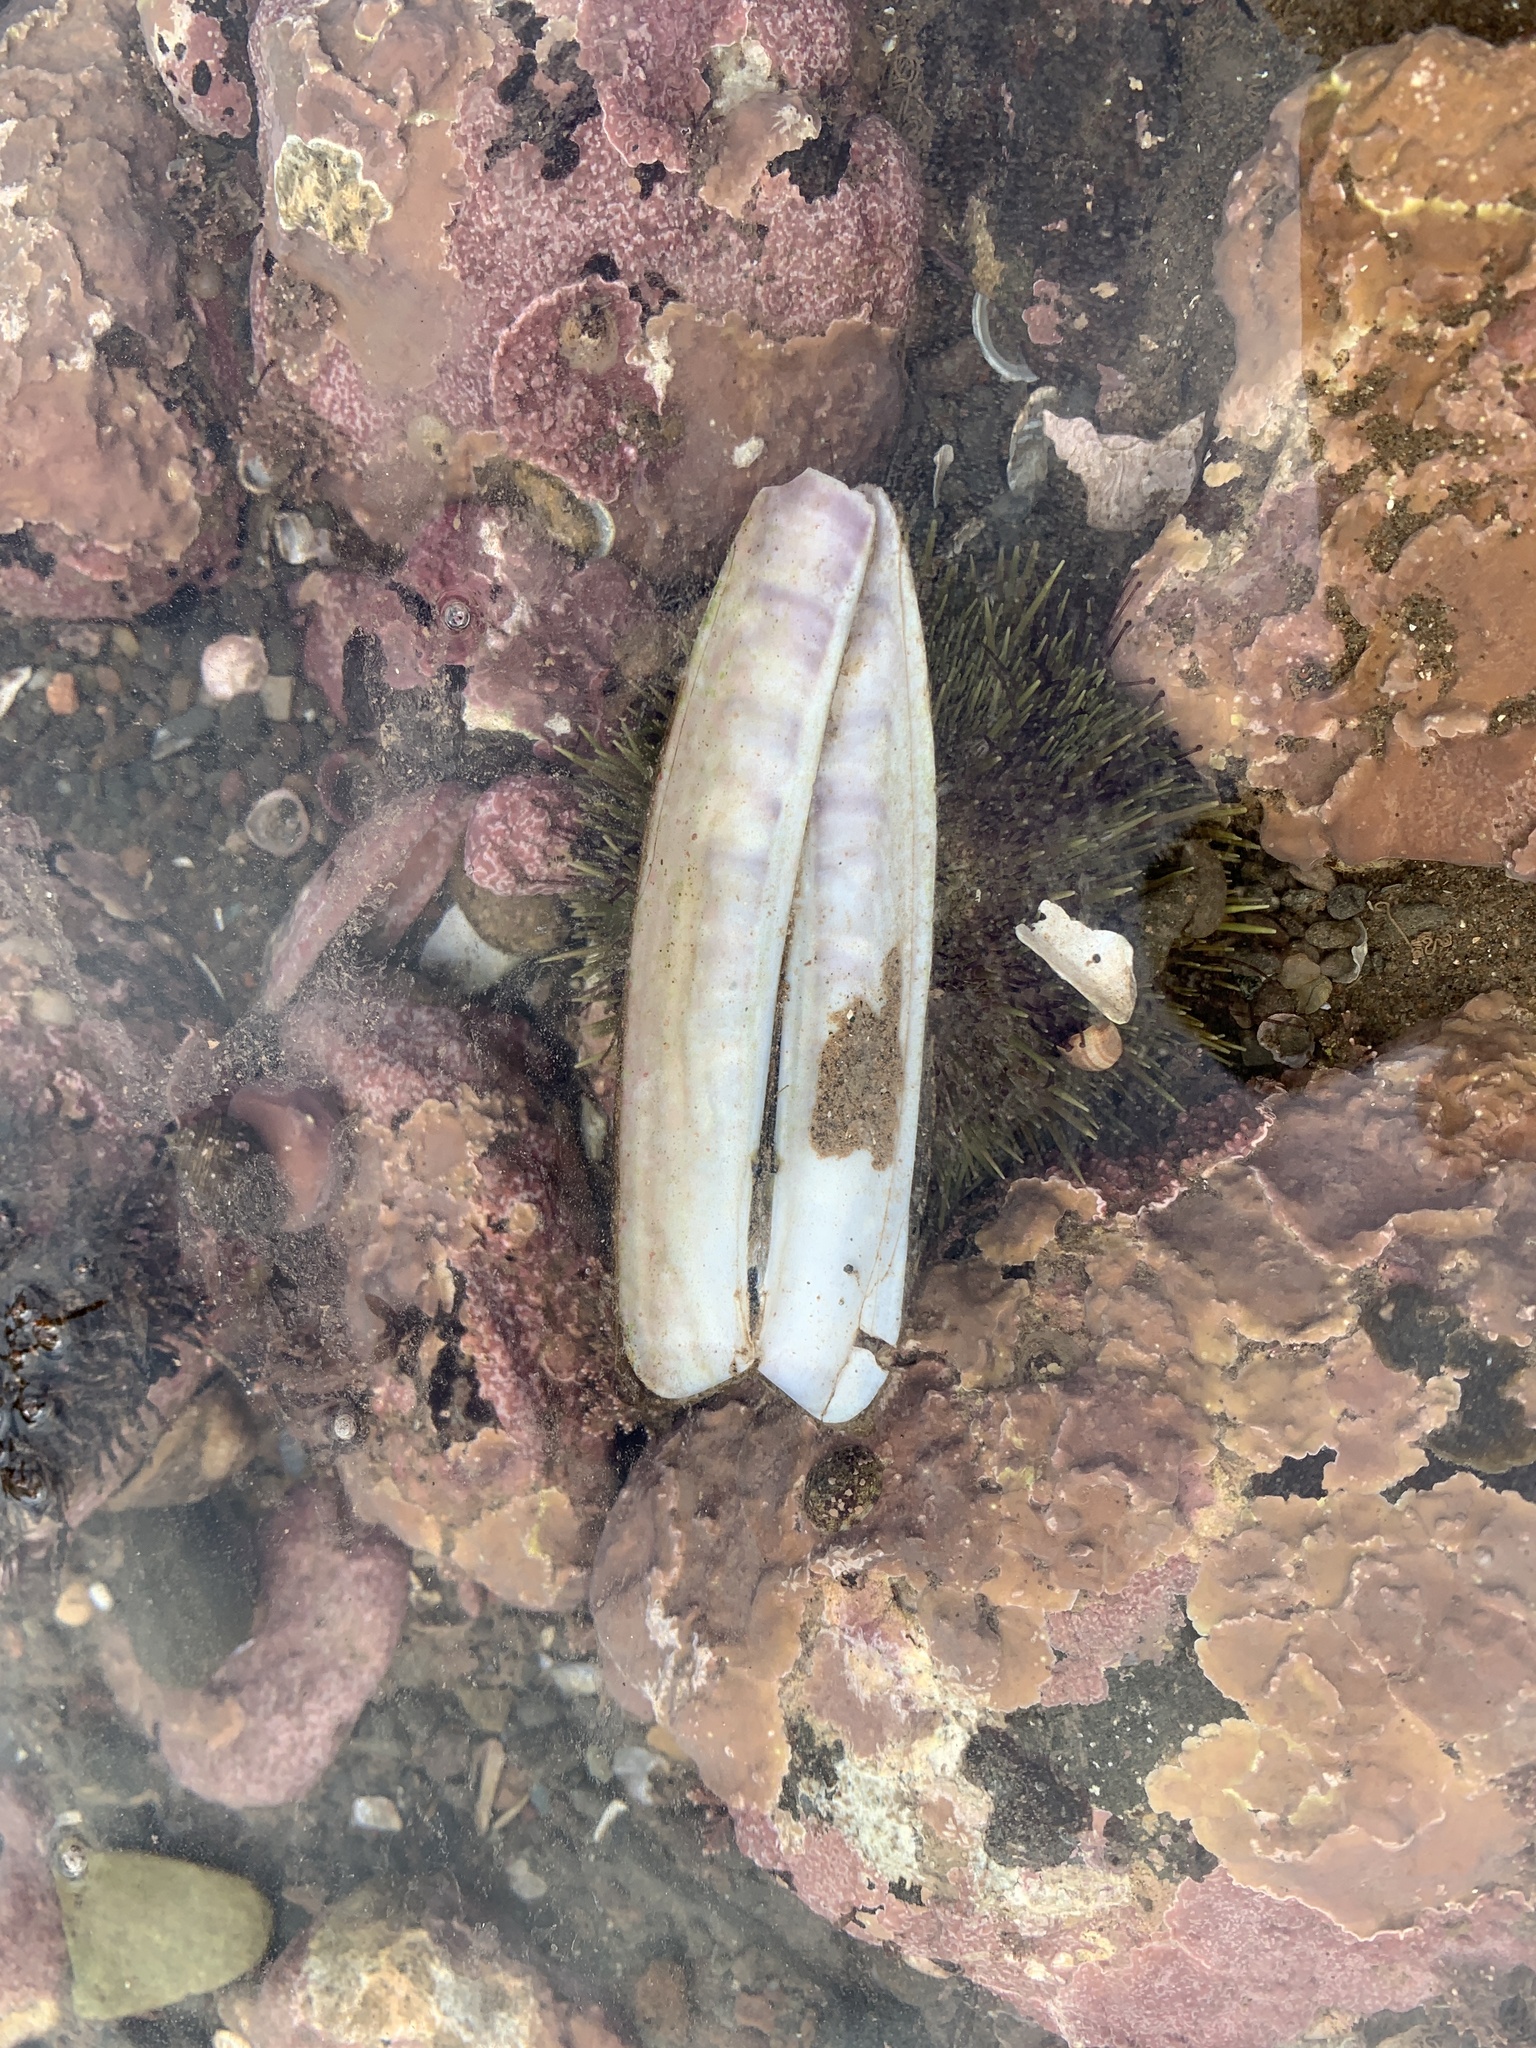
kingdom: Animalia
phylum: Mollusca
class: Bivalvia
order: Adapedonta
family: Pharidae
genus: Ensis
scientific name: Ensis leei
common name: American jack knife clam
